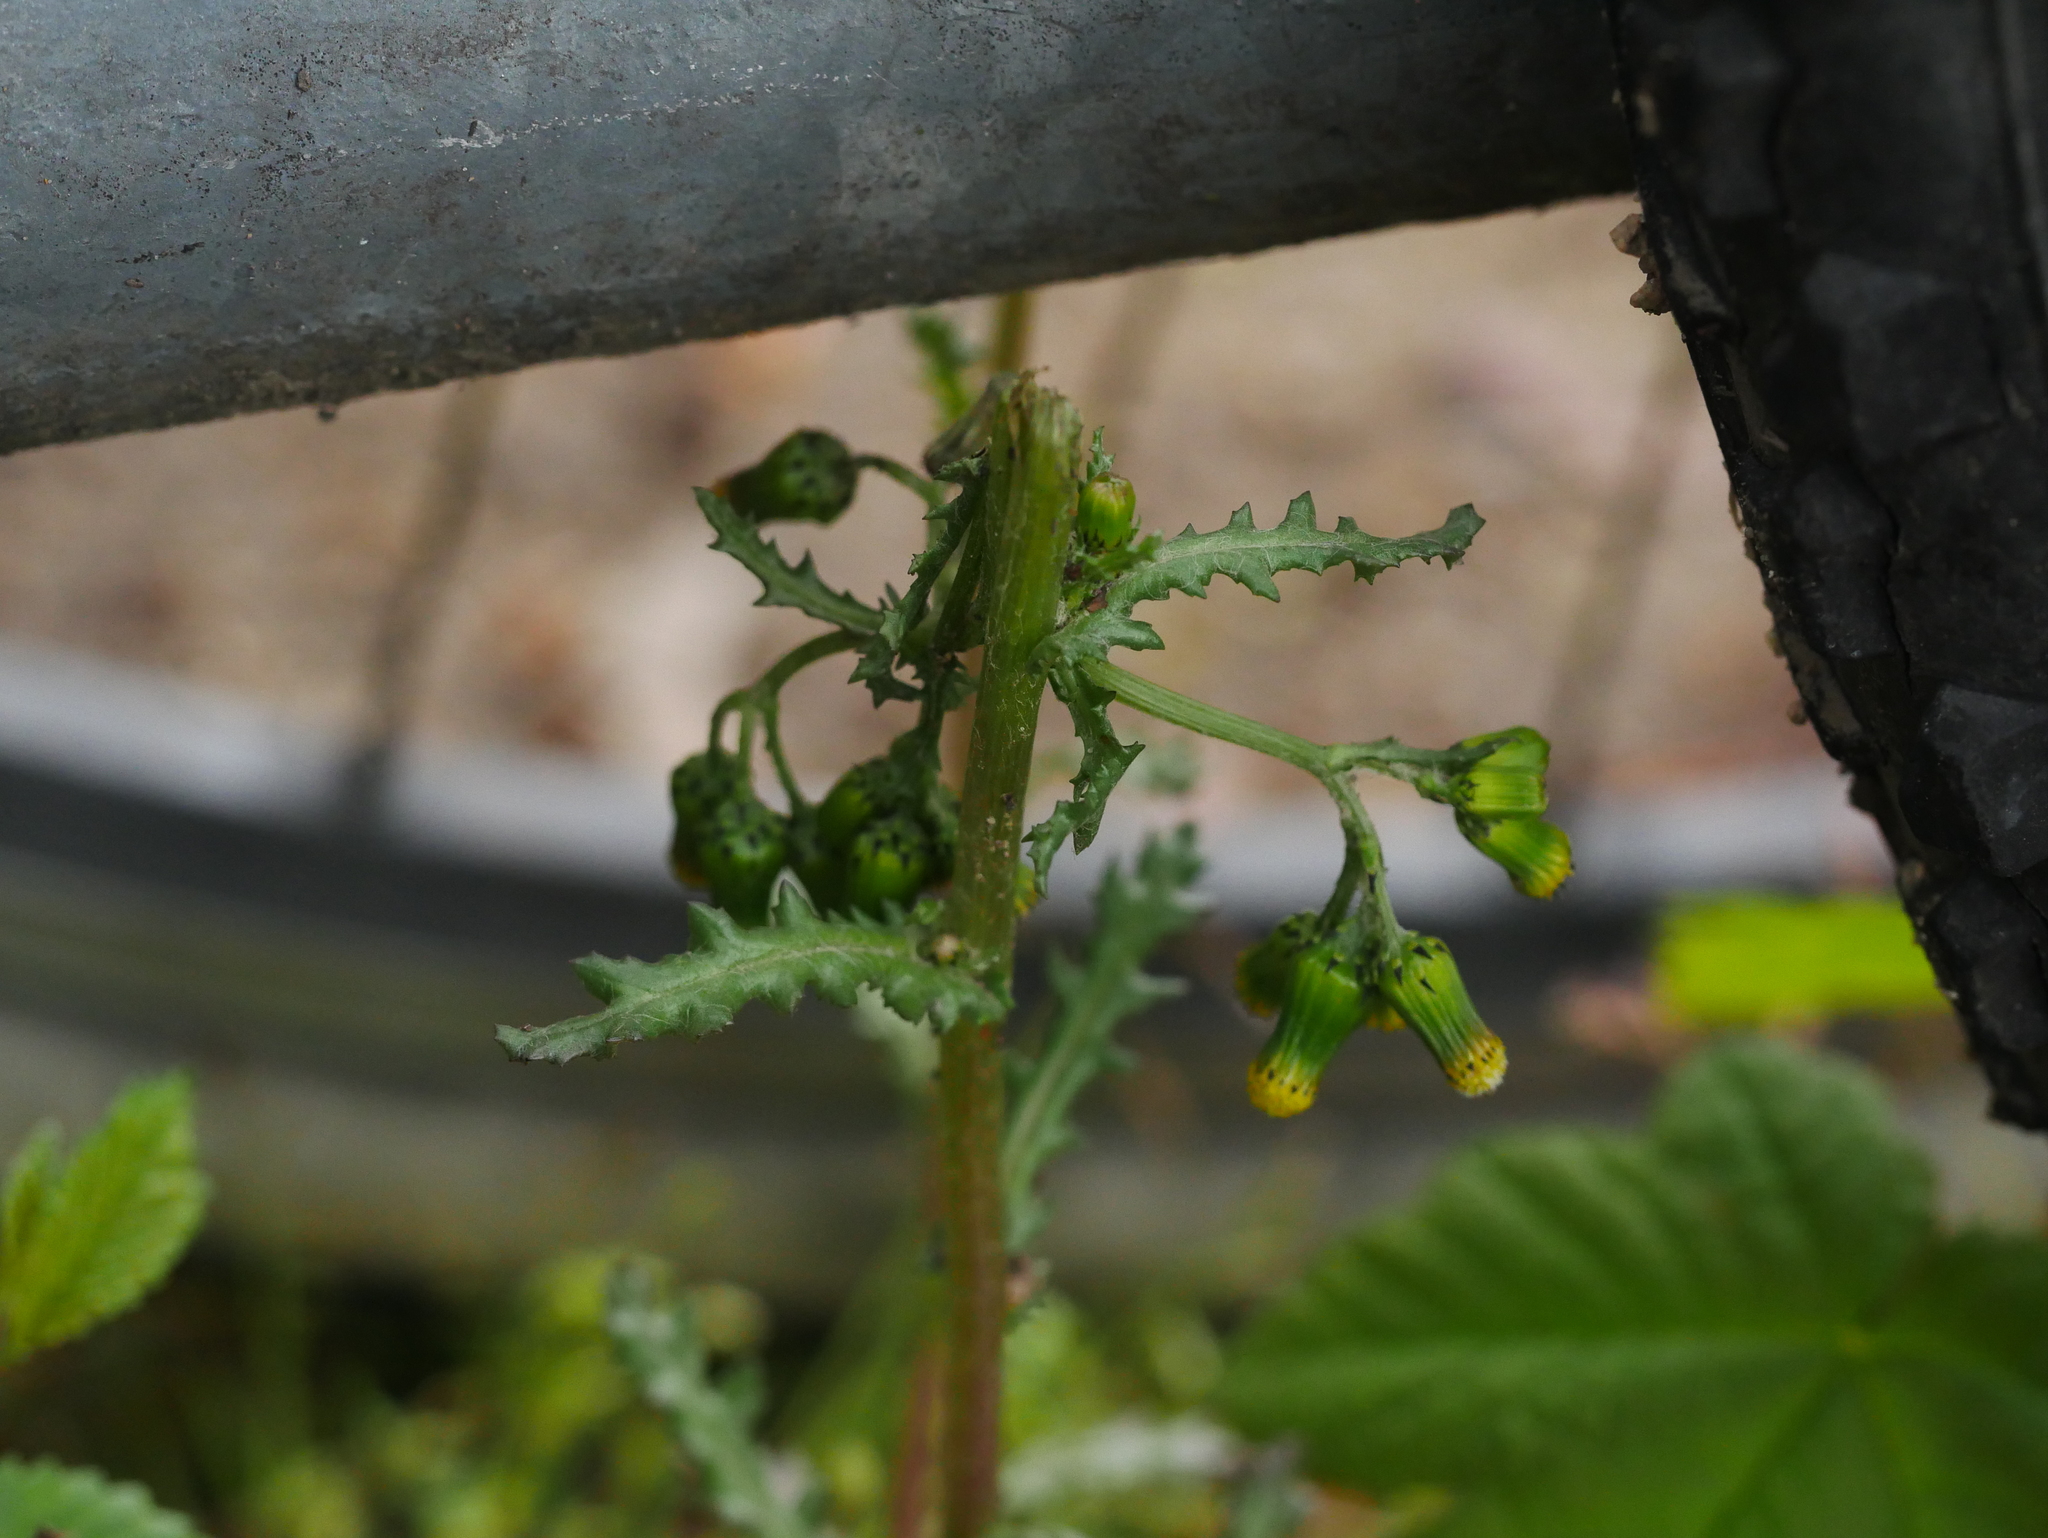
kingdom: Plantae
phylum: Tracheophyta
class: Magnoliopsida
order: Asterales
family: Asteraceae
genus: Senecio
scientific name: Senecio vulgaris
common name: Old-man-in-the-spring
